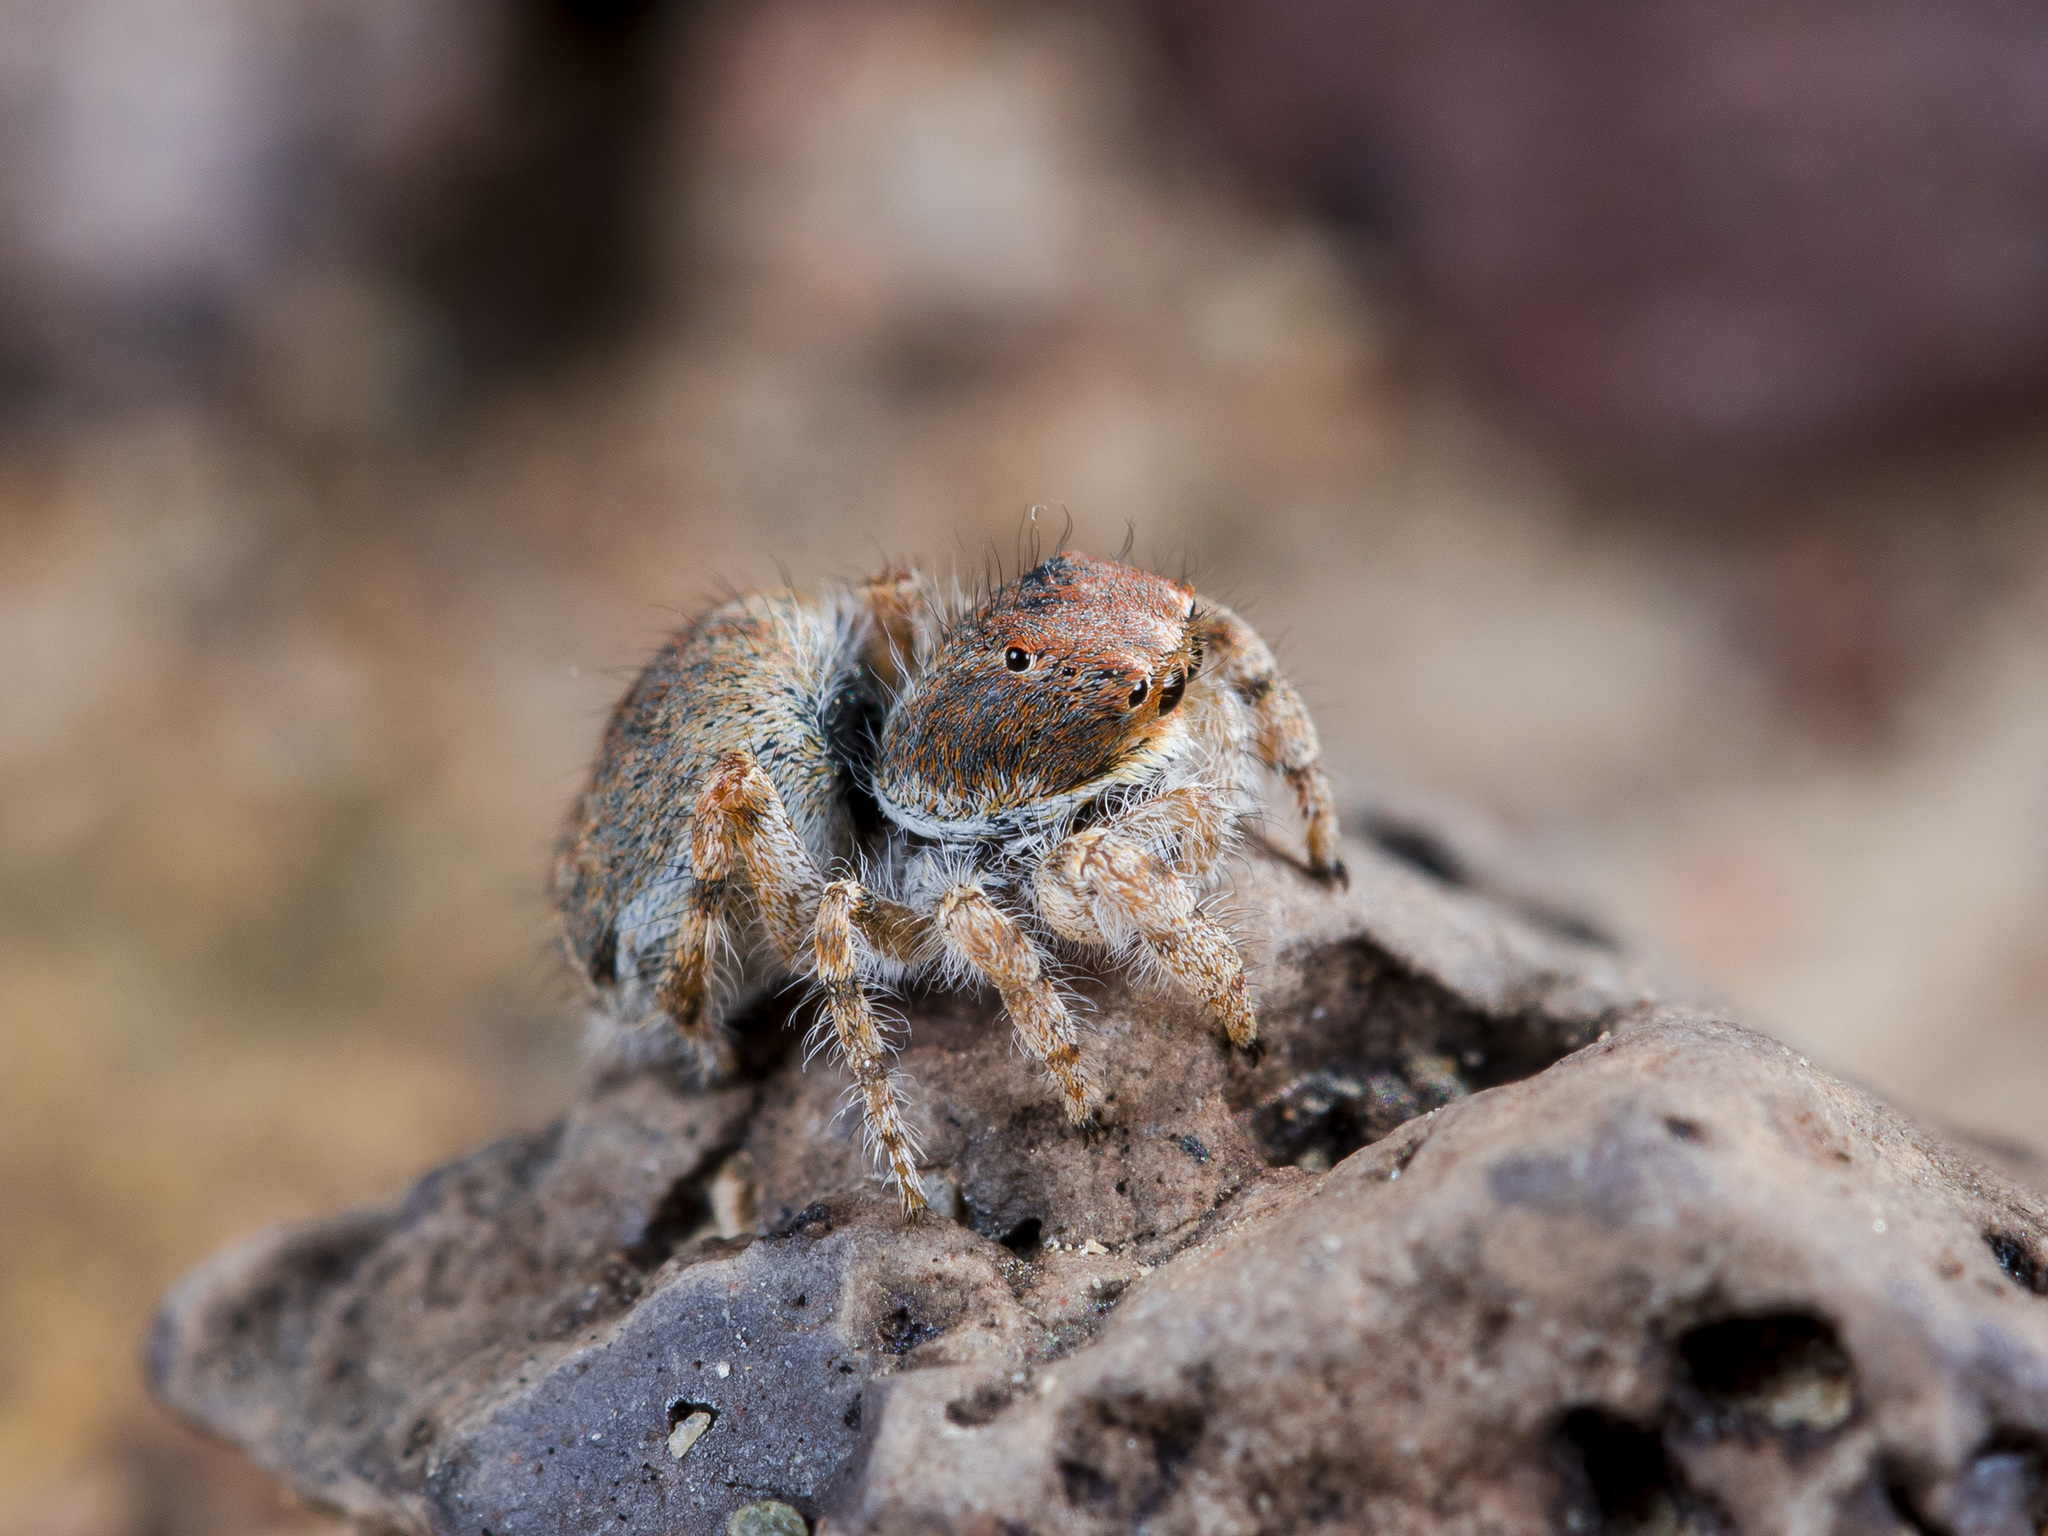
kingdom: Animalia
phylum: Arthropoda
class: Arachnida
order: Araneae
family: Salticidae
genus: Yllenus
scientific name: Yllenus zyuzini
